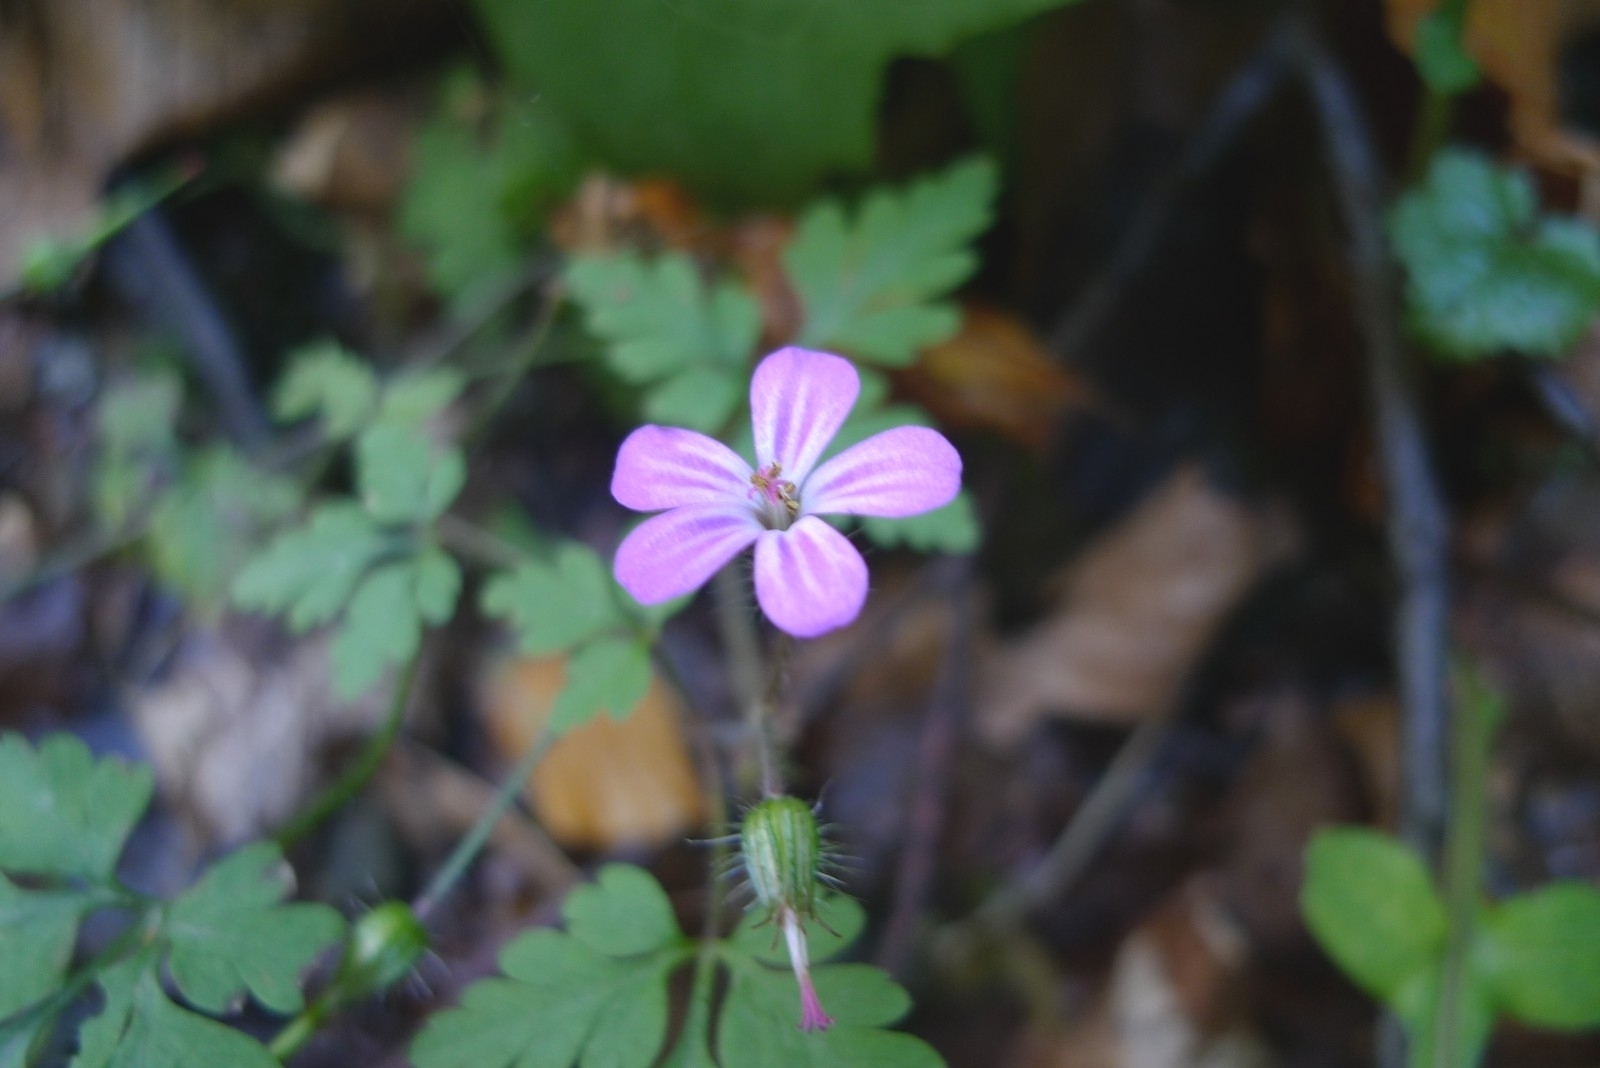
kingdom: Plantae
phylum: Tracheophyta
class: Magnoliopsida
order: Geraniales
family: Geraniaceae
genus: Geranium
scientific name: Geranium robertianum
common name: Herb-robert
